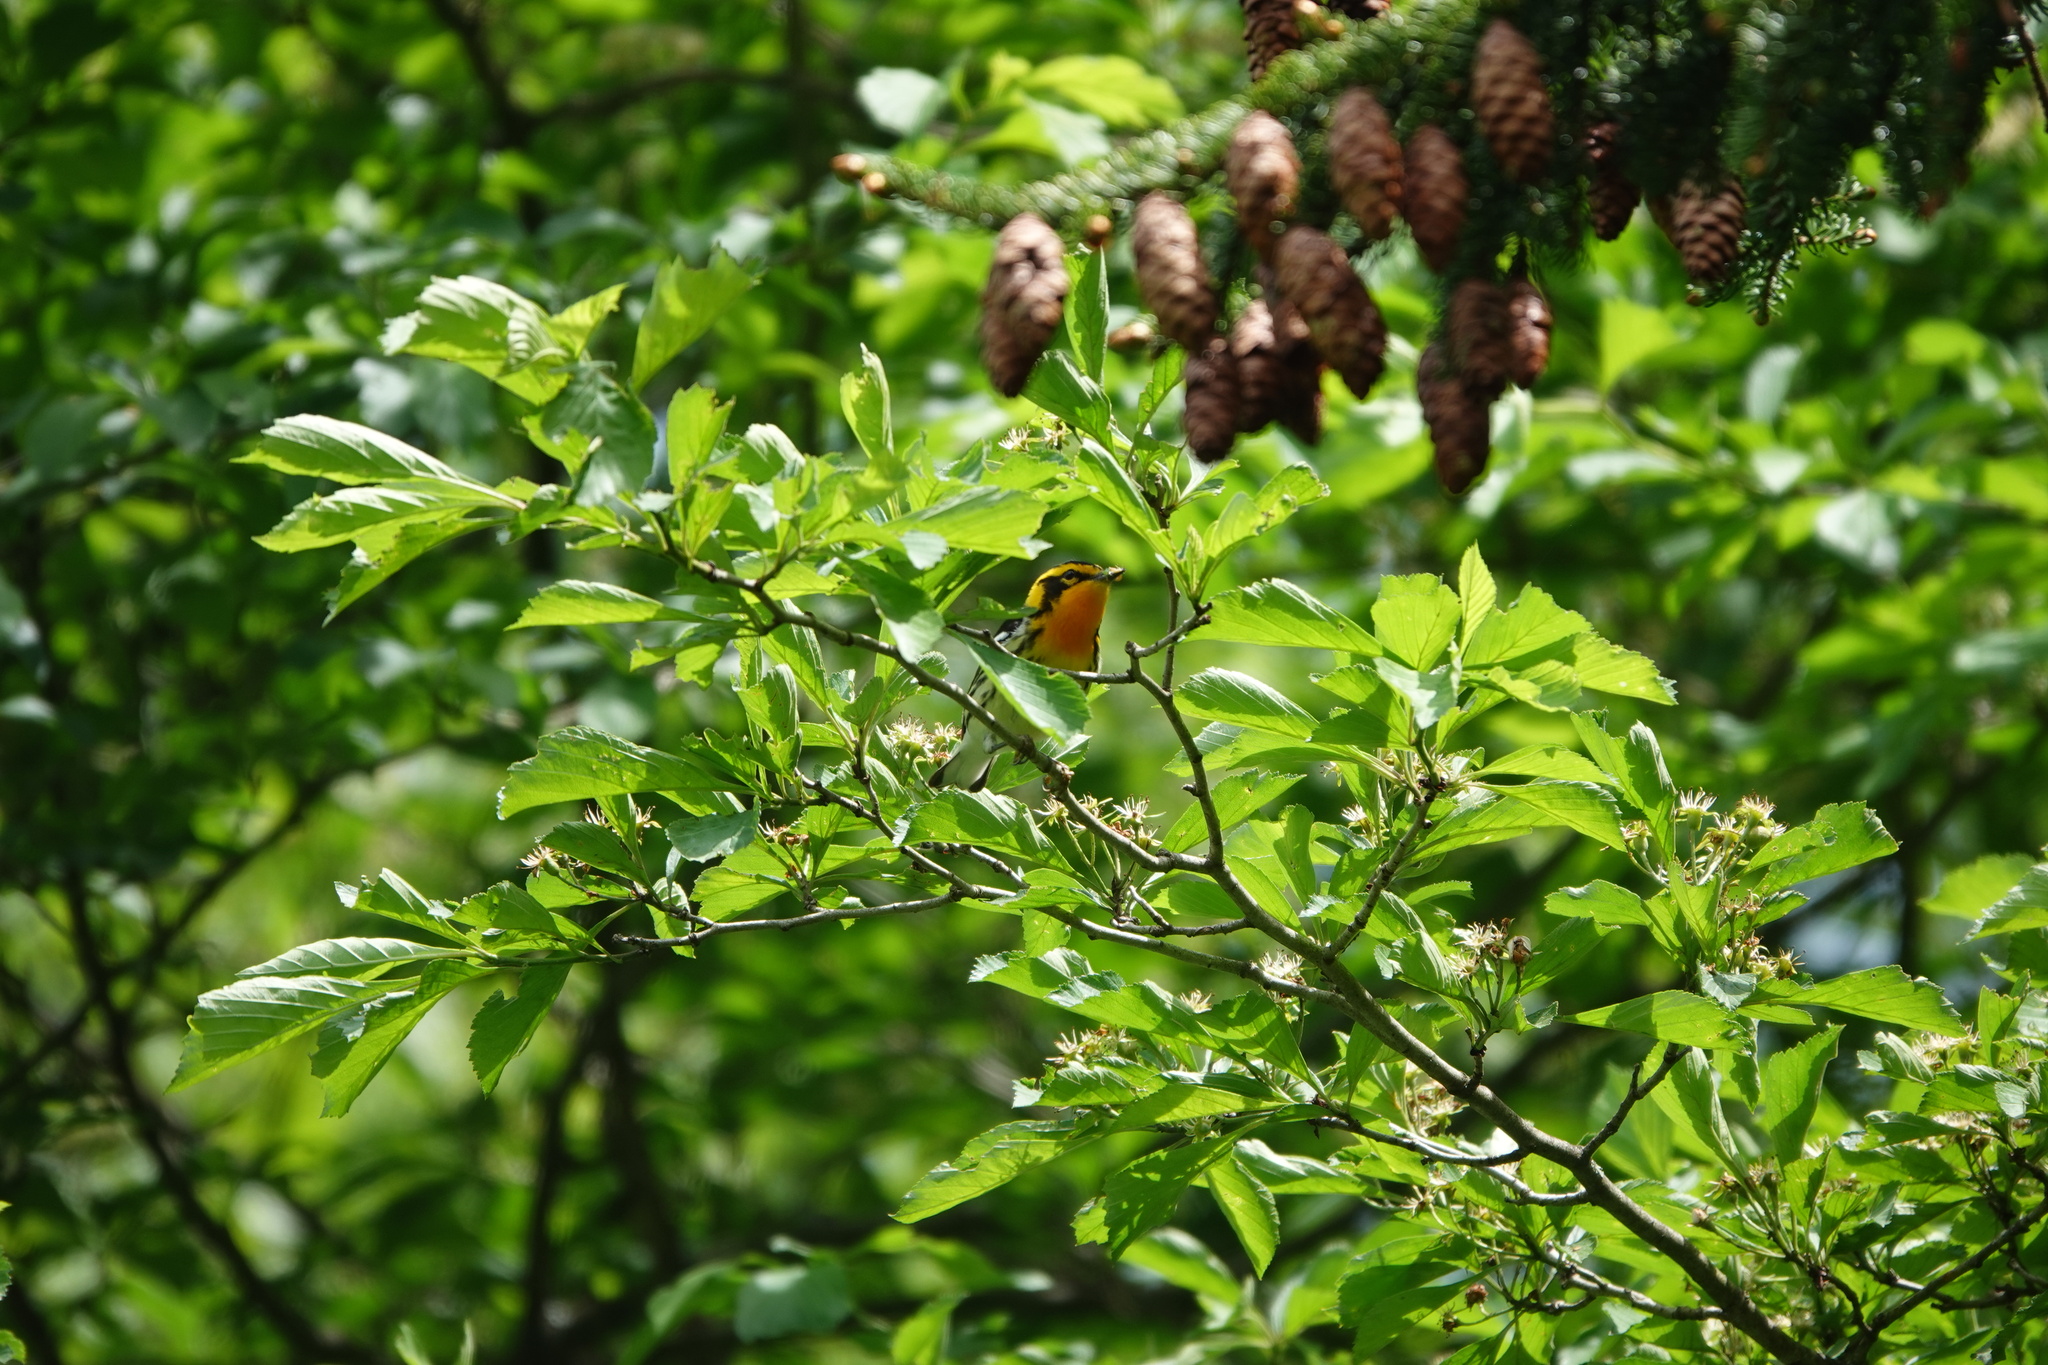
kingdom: Animalia
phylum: Chordata
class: Aves
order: Passeriformes
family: Parulidae
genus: Setophaga
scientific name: Setophaga fusca
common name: Blackburnian warbler
